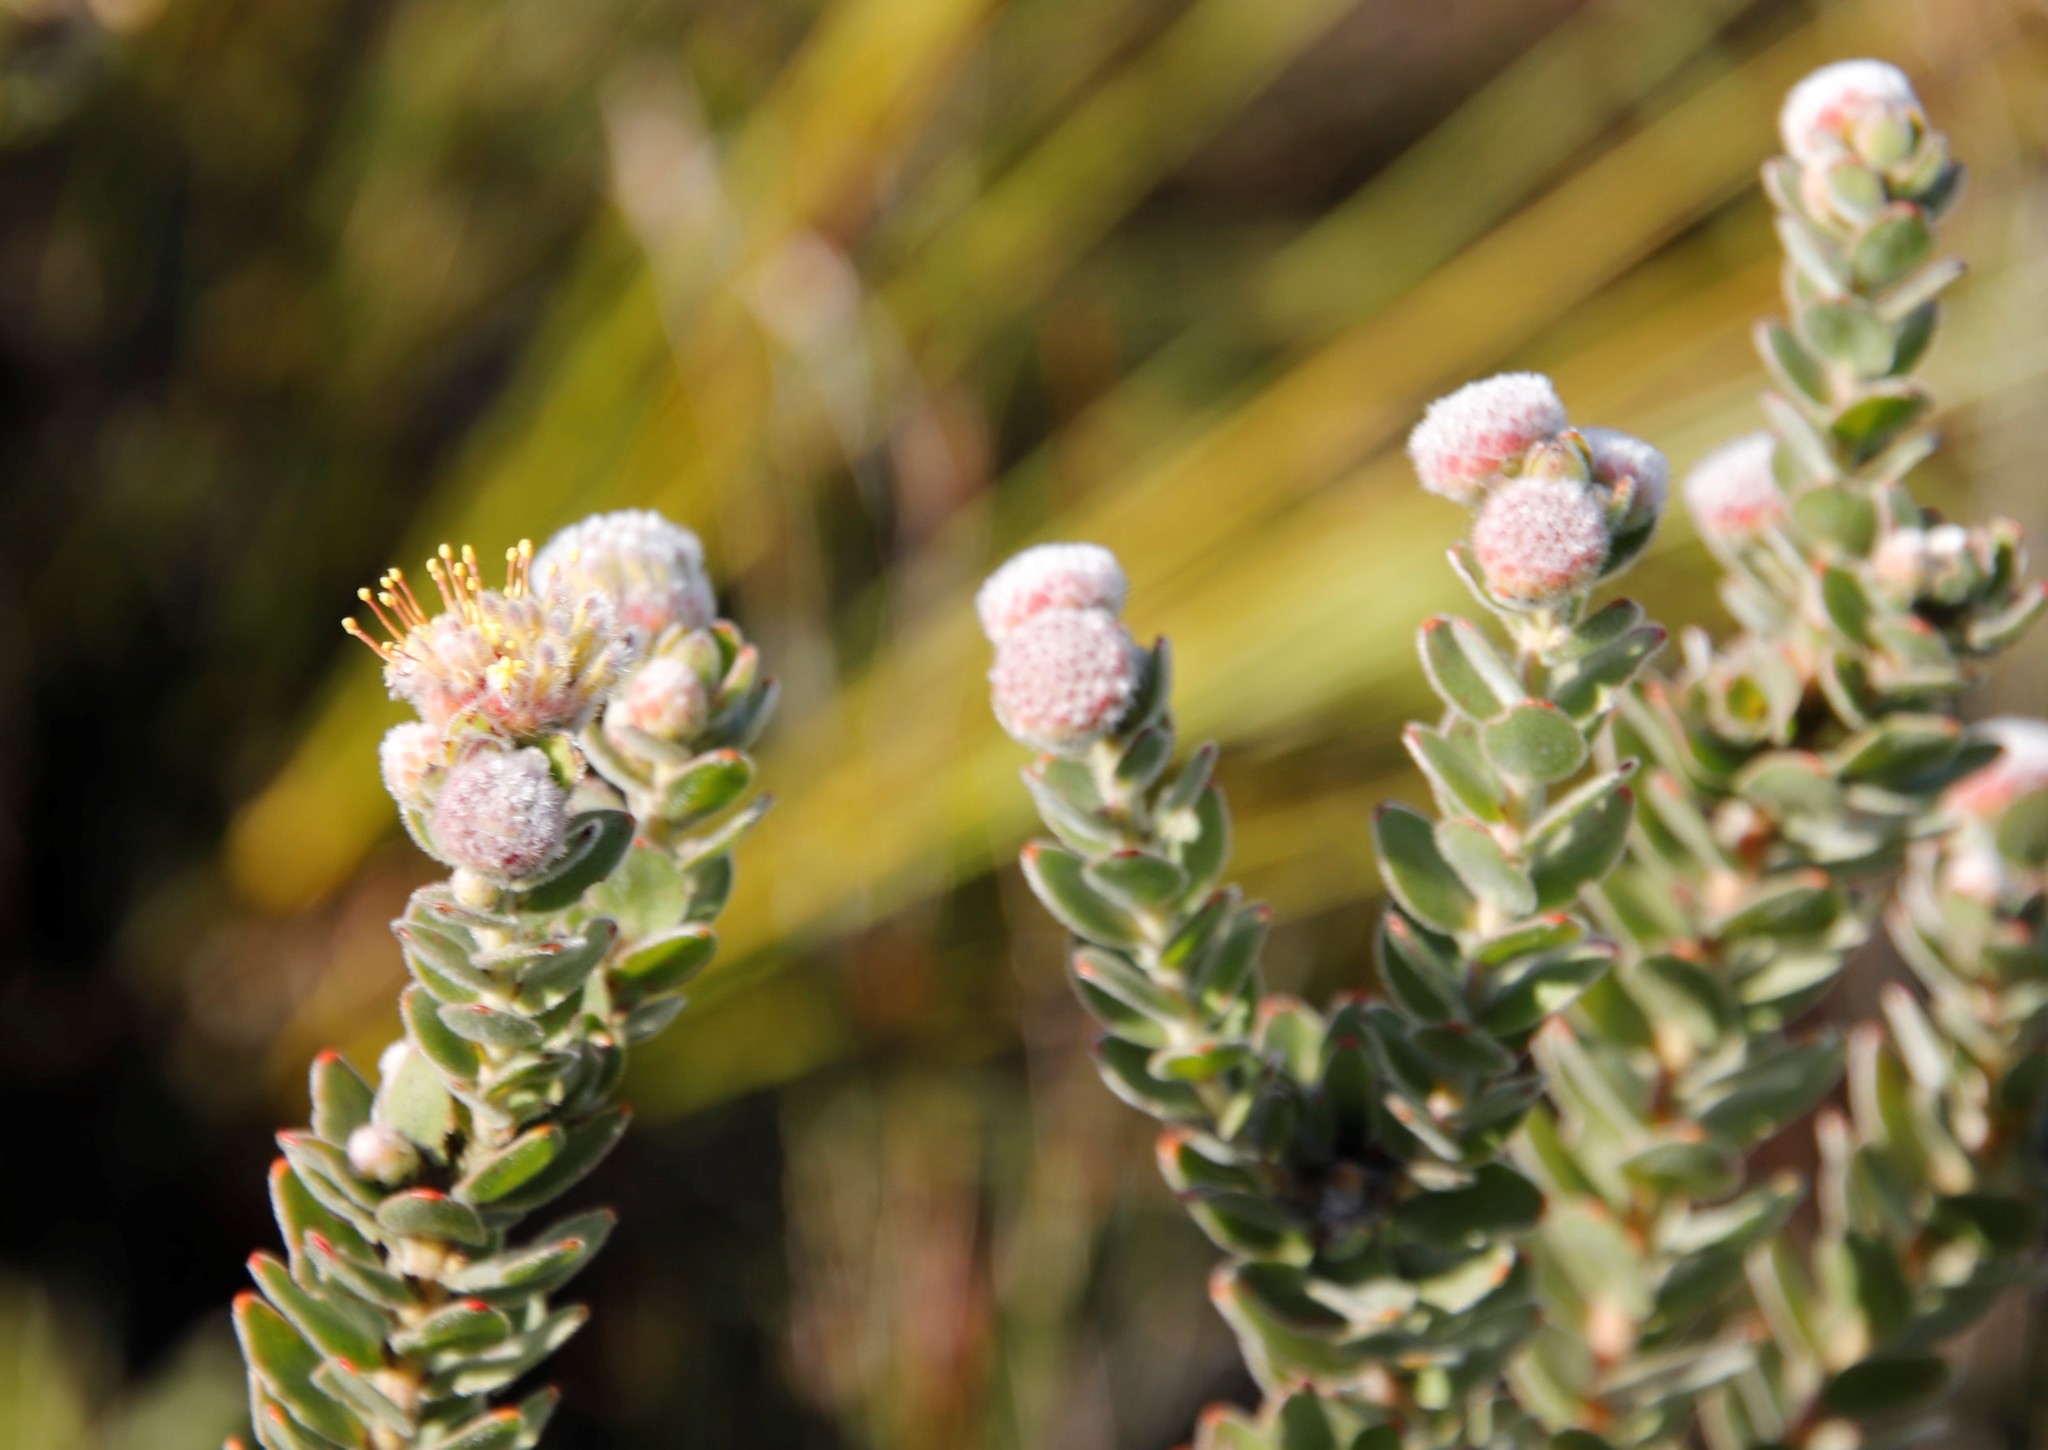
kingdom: Plantae
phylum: Tracheophyta
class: Magnoliopsida
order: Proteales
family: Proteaceae
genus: Leucospermum
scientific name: Leucospermum truncatulum
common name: Oval-leaf pincushion
